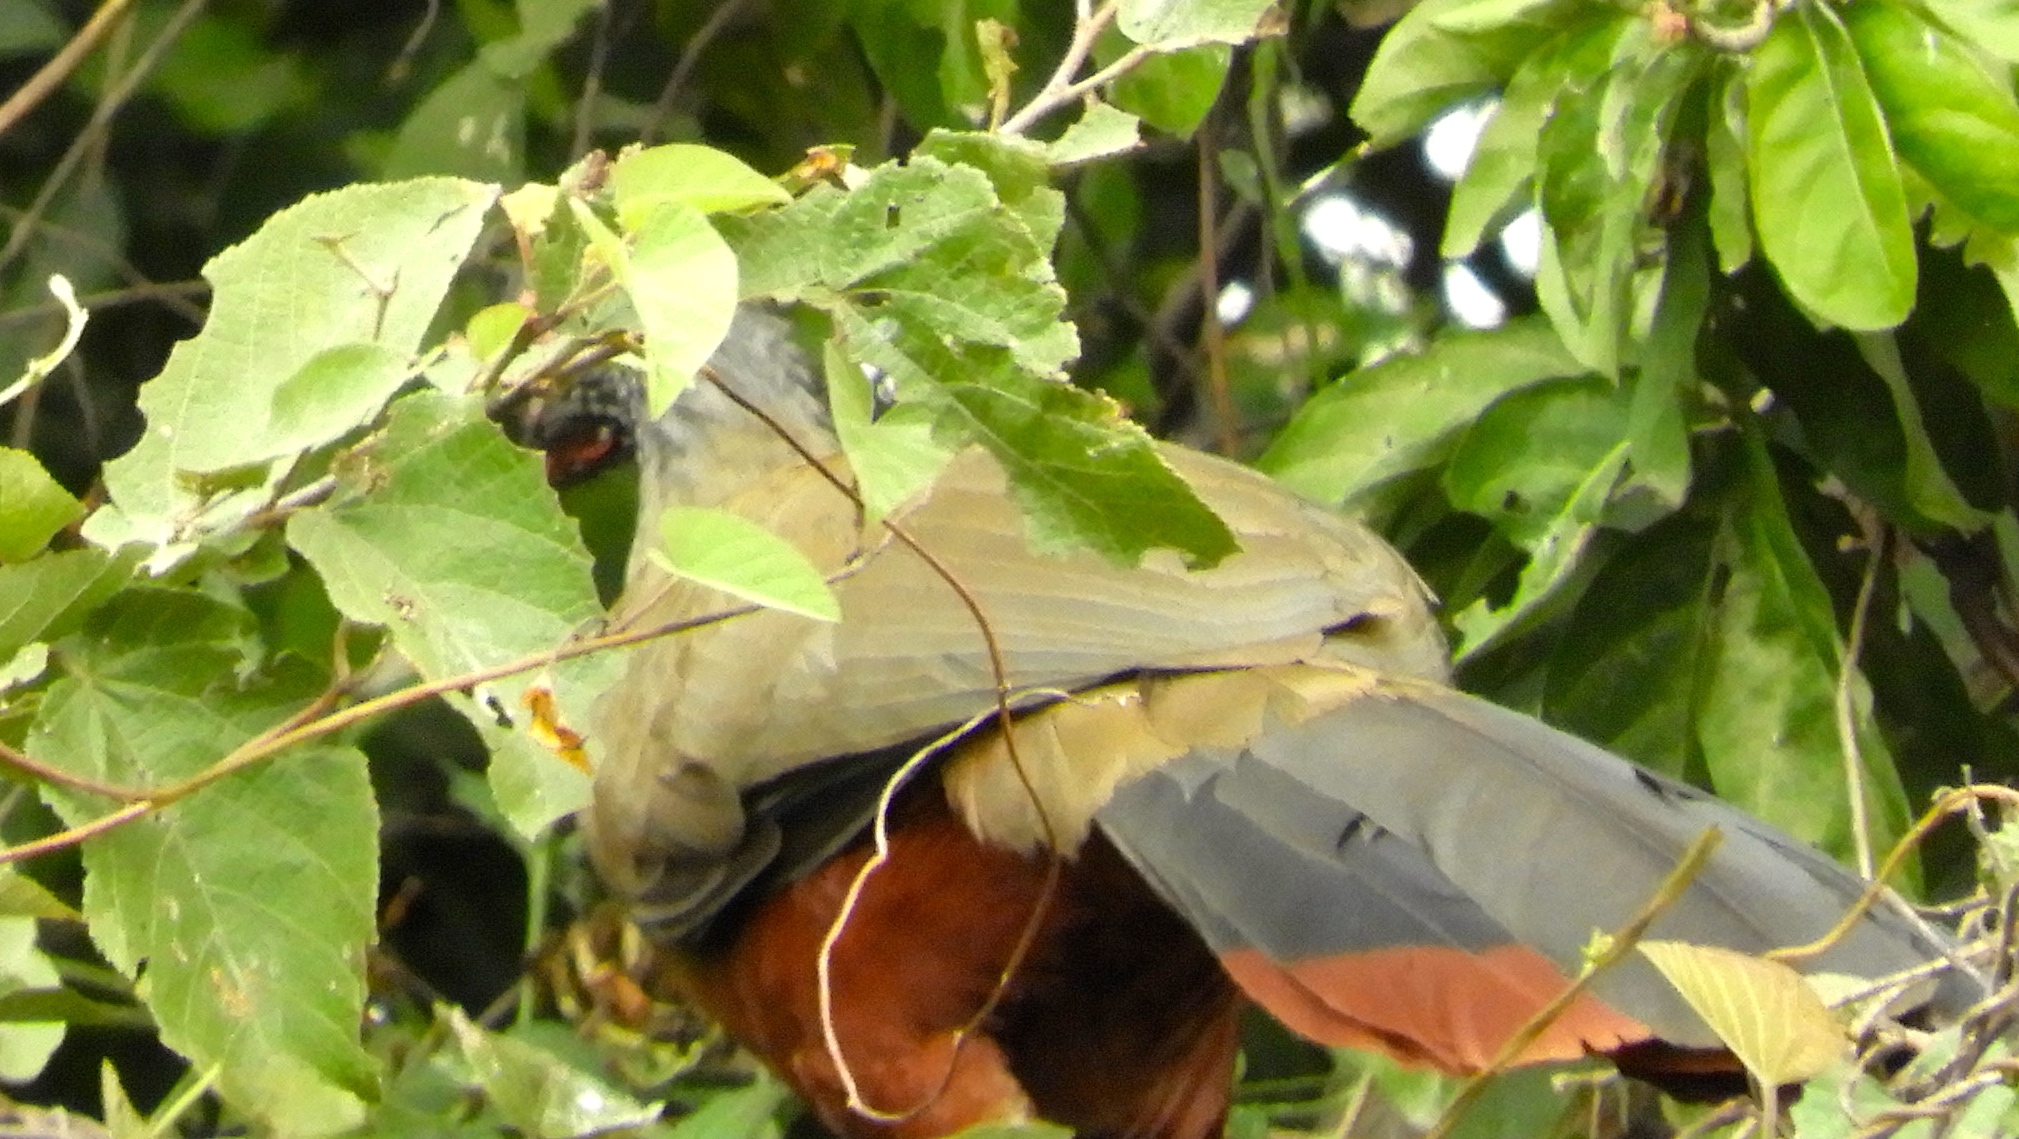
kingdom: Animalia
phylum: Chordata
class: Aves
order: Galliformes
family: Cracidae
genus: Ortalis
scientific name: Ortalis wagleri
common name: Rufous-bellied chachalaca
